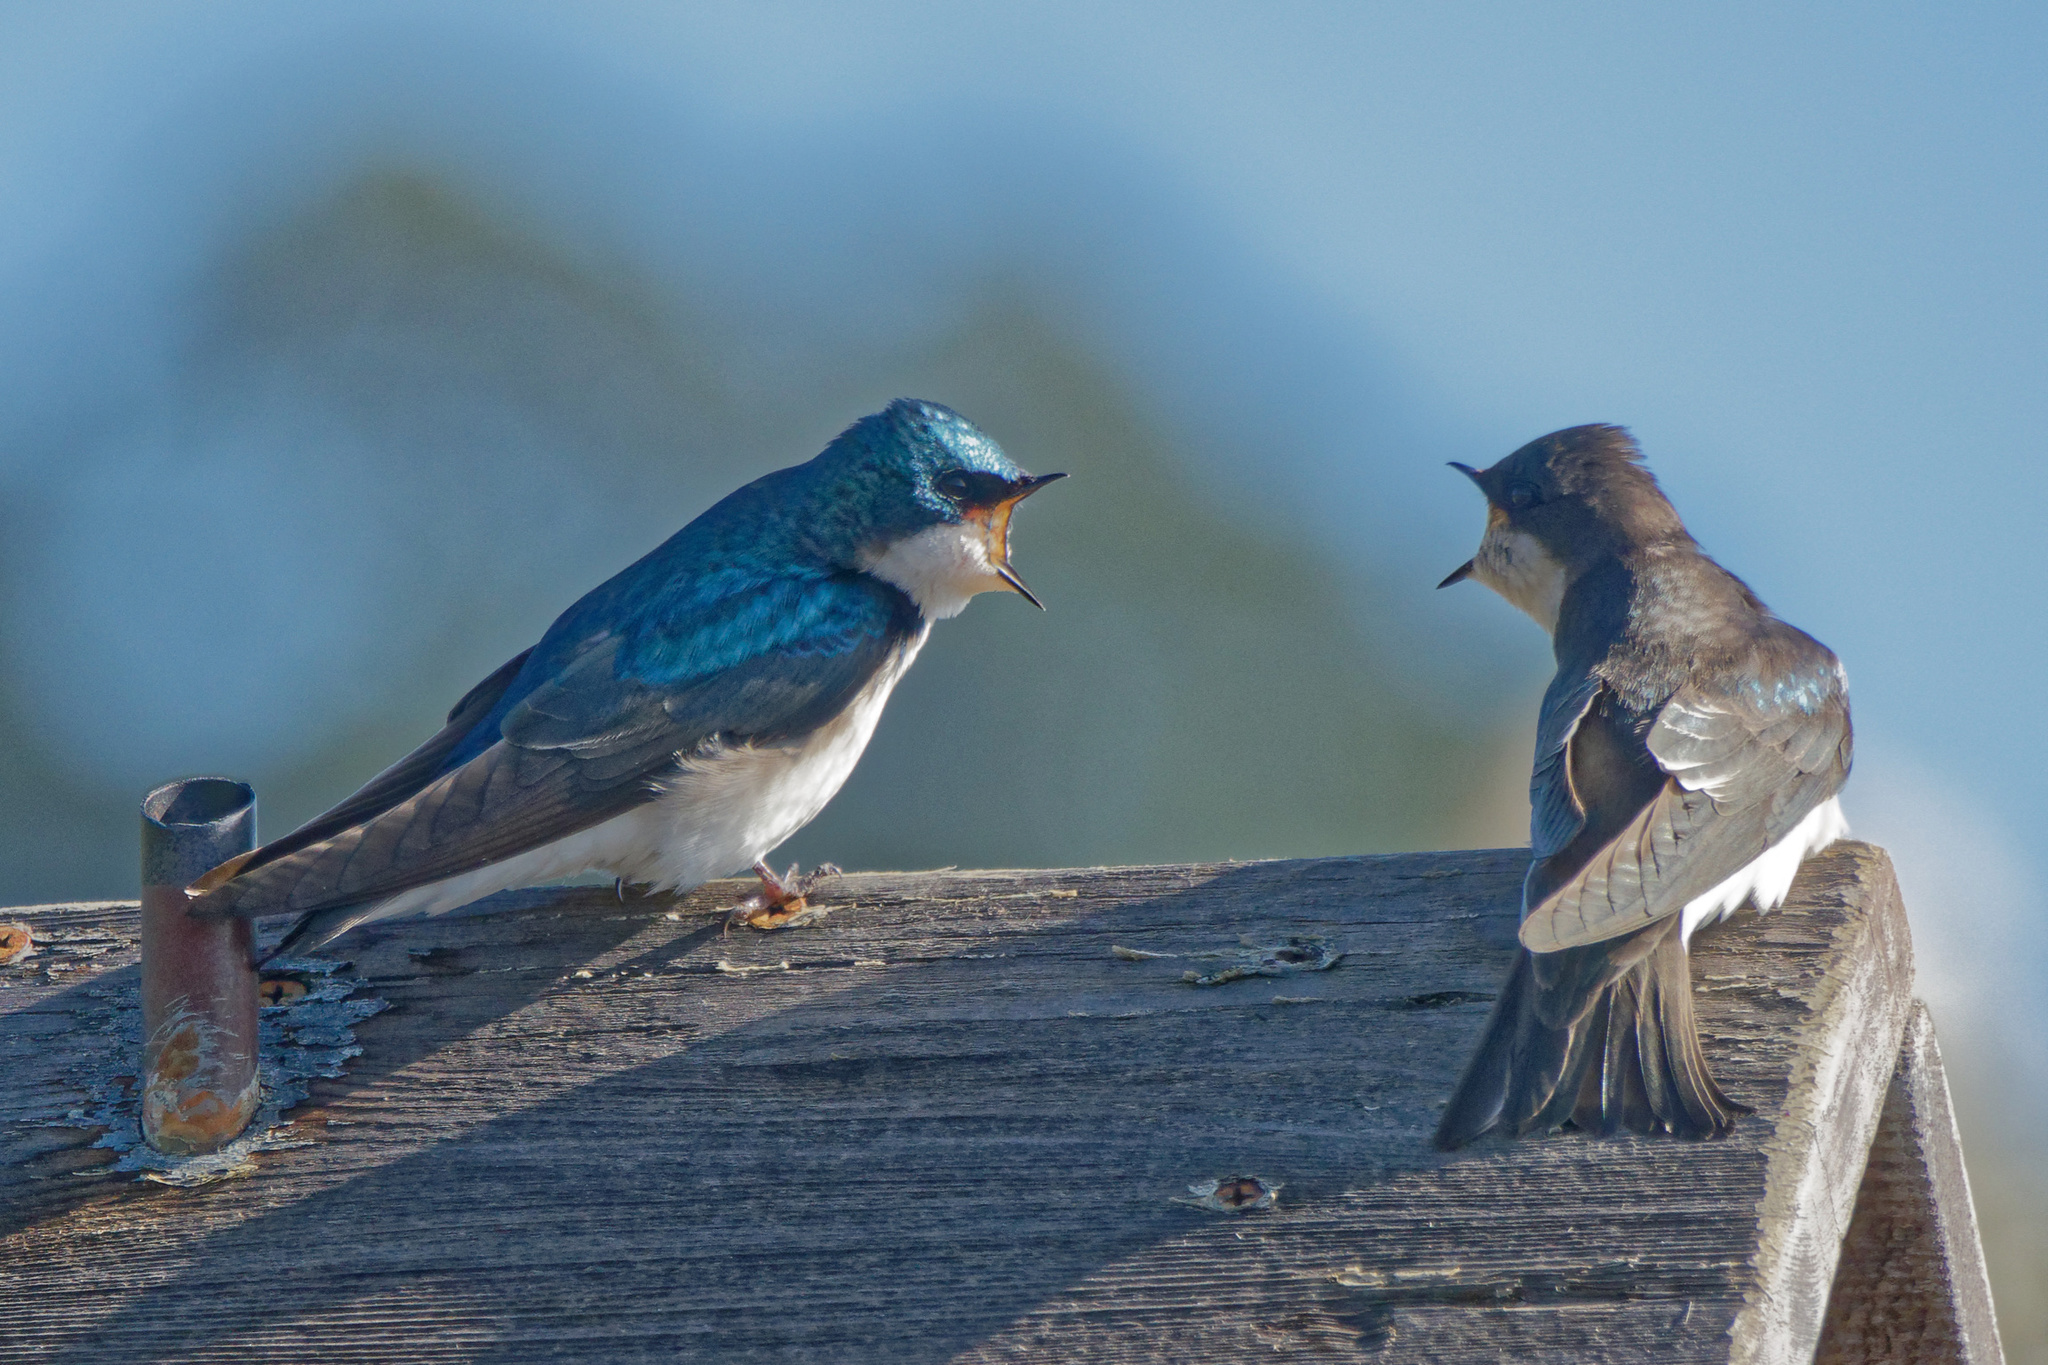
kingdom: Animalia
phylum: Chordata
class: Aves
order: Passeriformes
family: Hirundinidae
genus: Tachycineta
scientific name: Tachycineta bicolor
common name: Tree swallow
